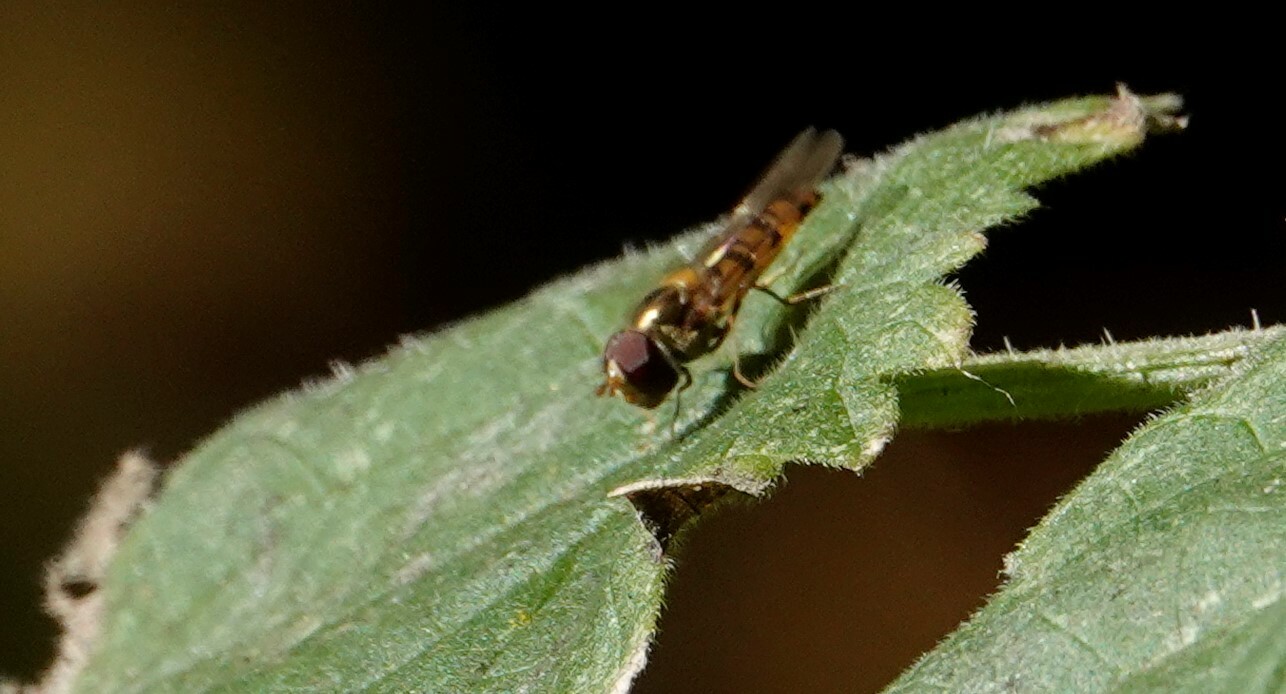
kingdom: Animalia
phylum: Arthropoda
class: Insecta
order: Diptera
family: Syrphidae
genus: Episyrphus
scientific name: Episyrphus balteatus
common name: Marmalade hoverfly
